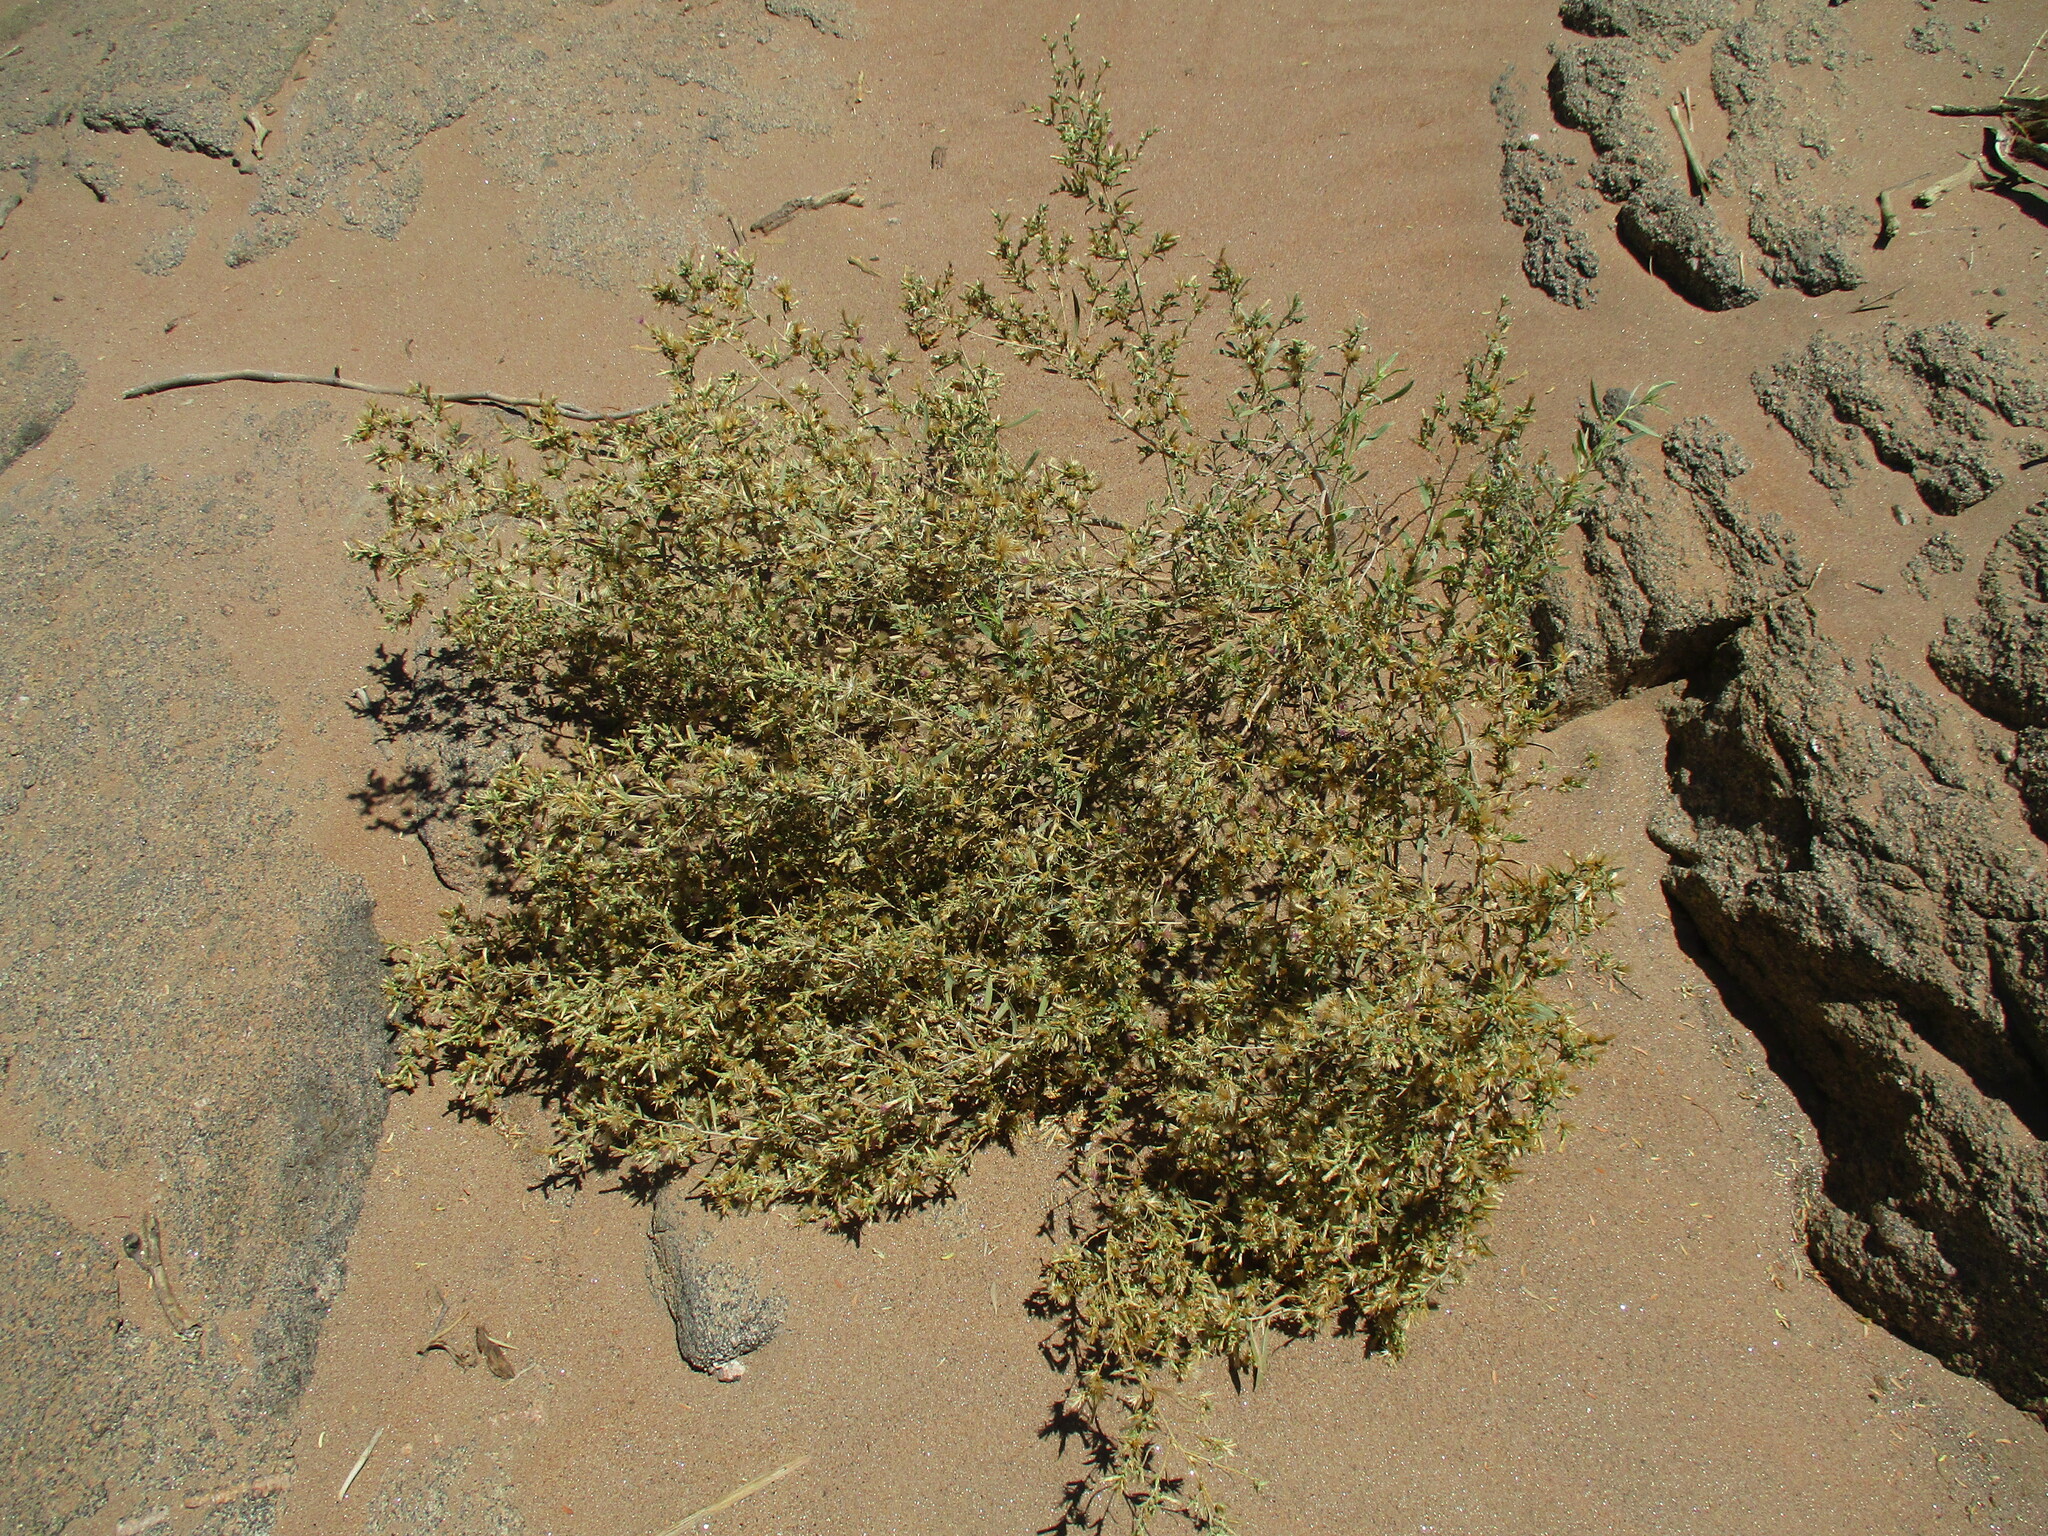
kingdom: Plantae
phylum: Tracheophyta
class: Magnoliopsida
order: Asterales
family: Asteraceae
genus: Pechuel-loeschea
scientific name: Pechuel-loeschea leubnitziae
